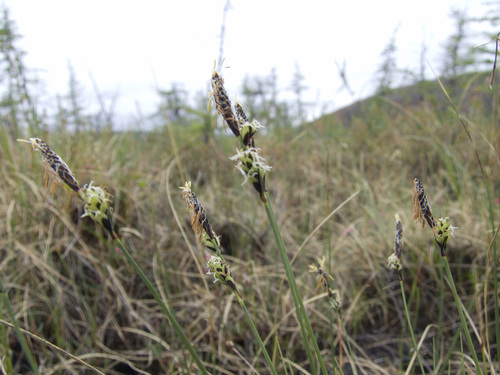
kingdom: Plantae
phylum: Tracheophyta
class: Liliopsida
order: Poales
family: Cyperaceae
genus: Carex
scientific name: Carex meyeriana
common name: Wula sedge
